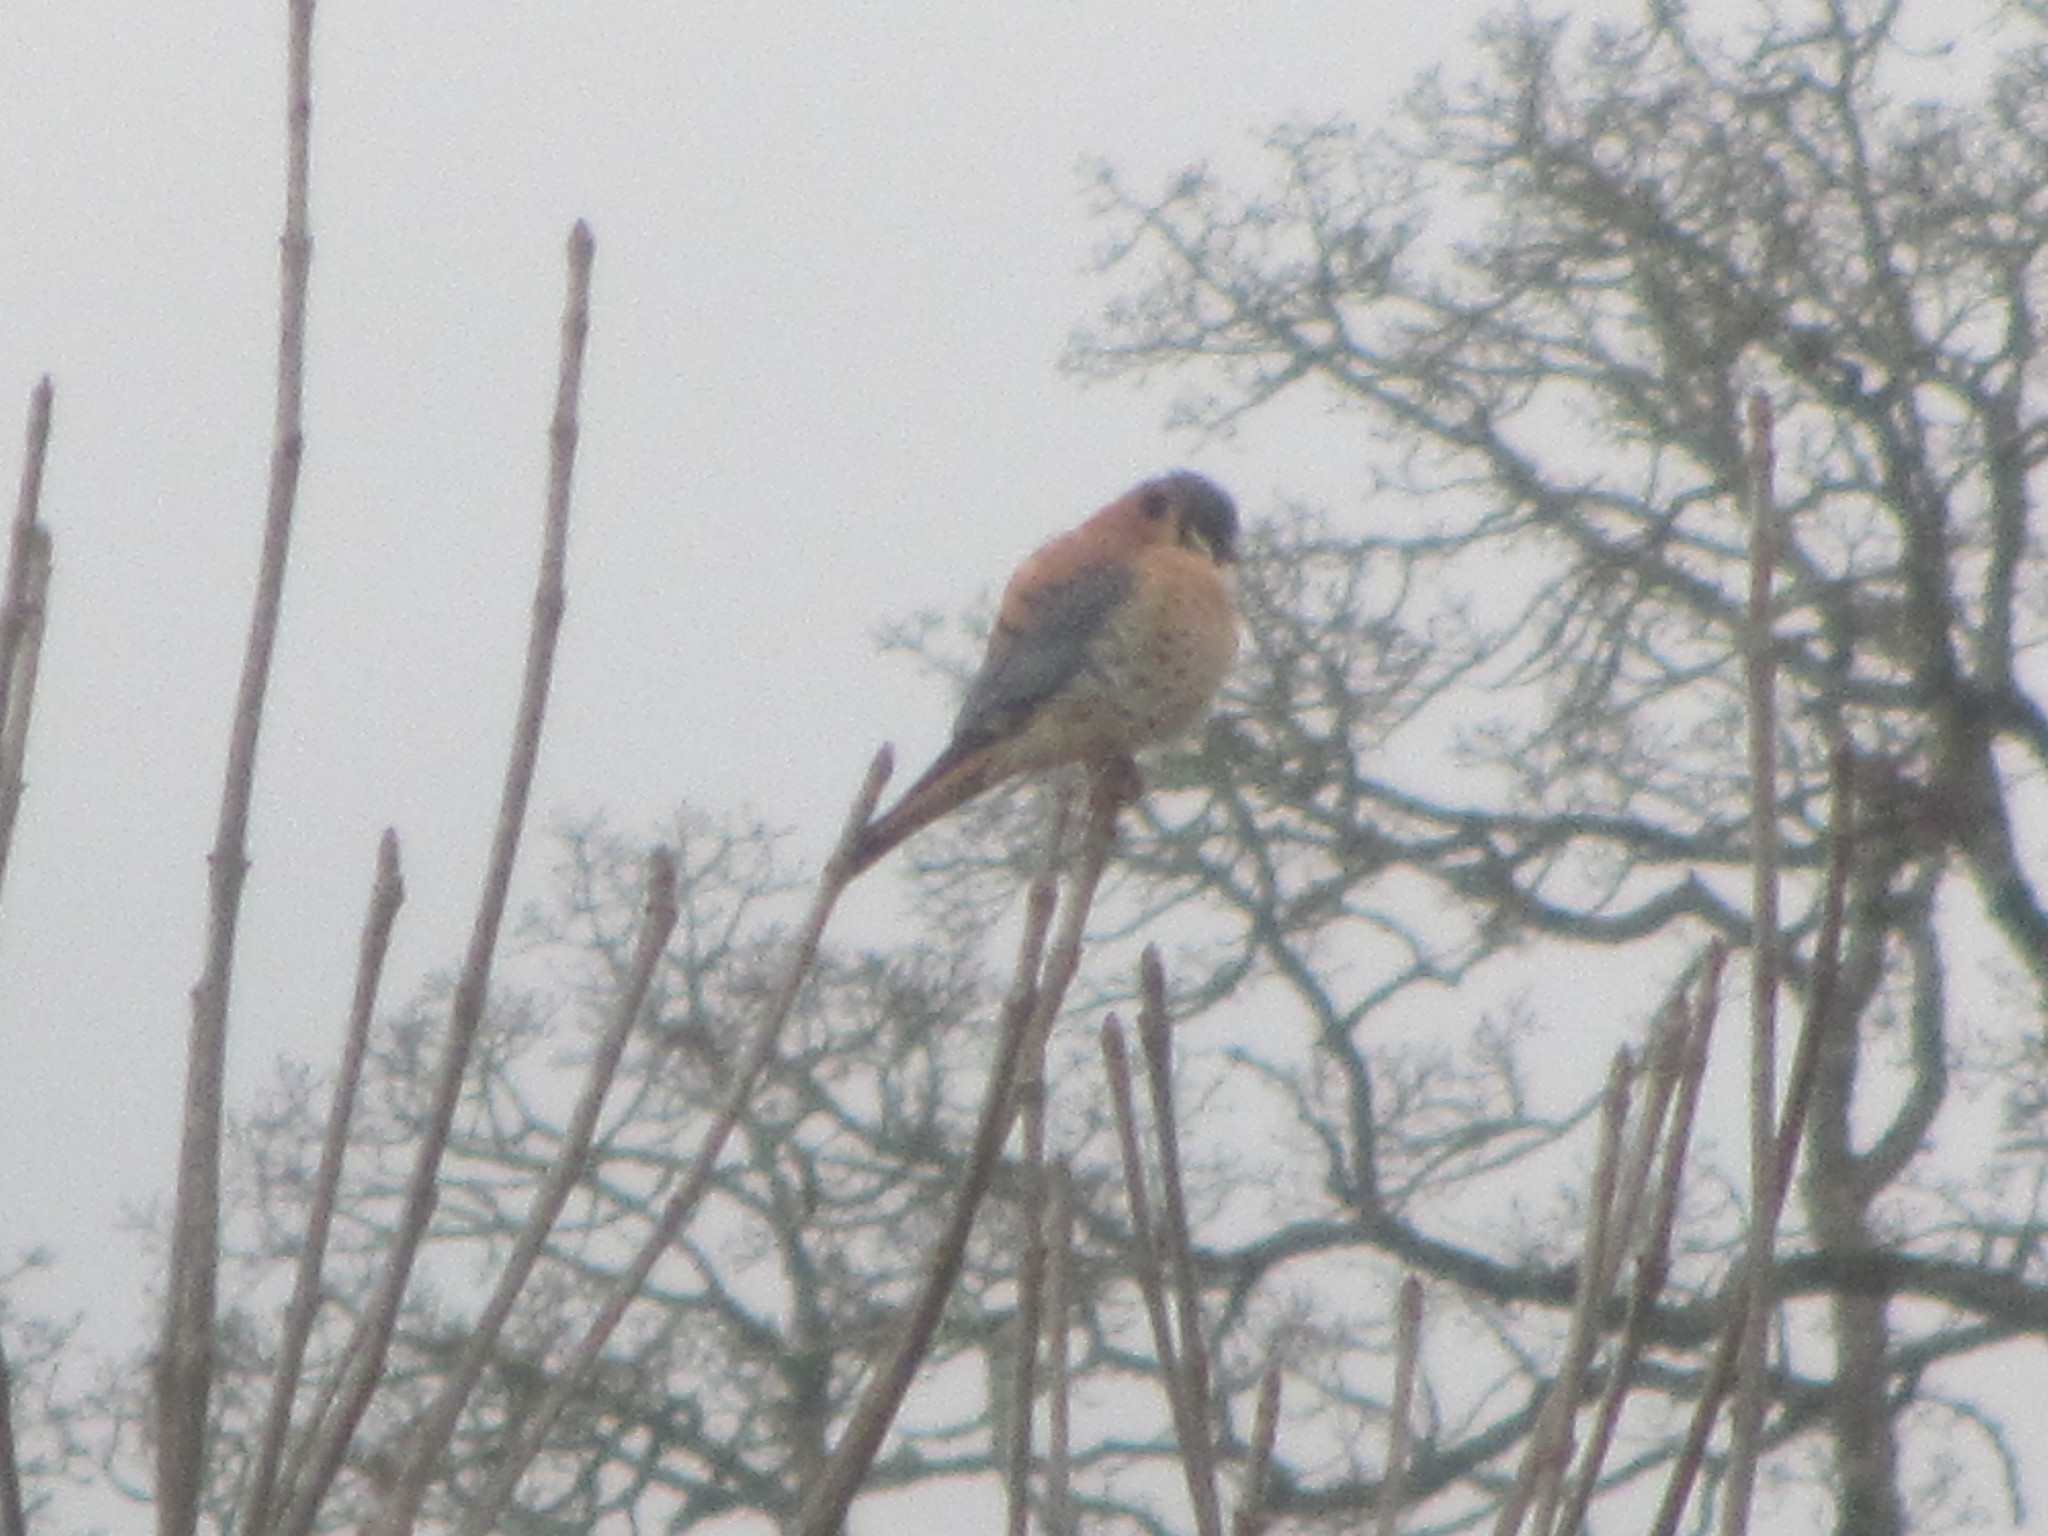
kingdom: Animalia
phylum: Chordata
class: Aves
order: Falconiformes
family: Falconidae
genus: Falco
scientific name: Falco sparverius
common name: American kestrel
